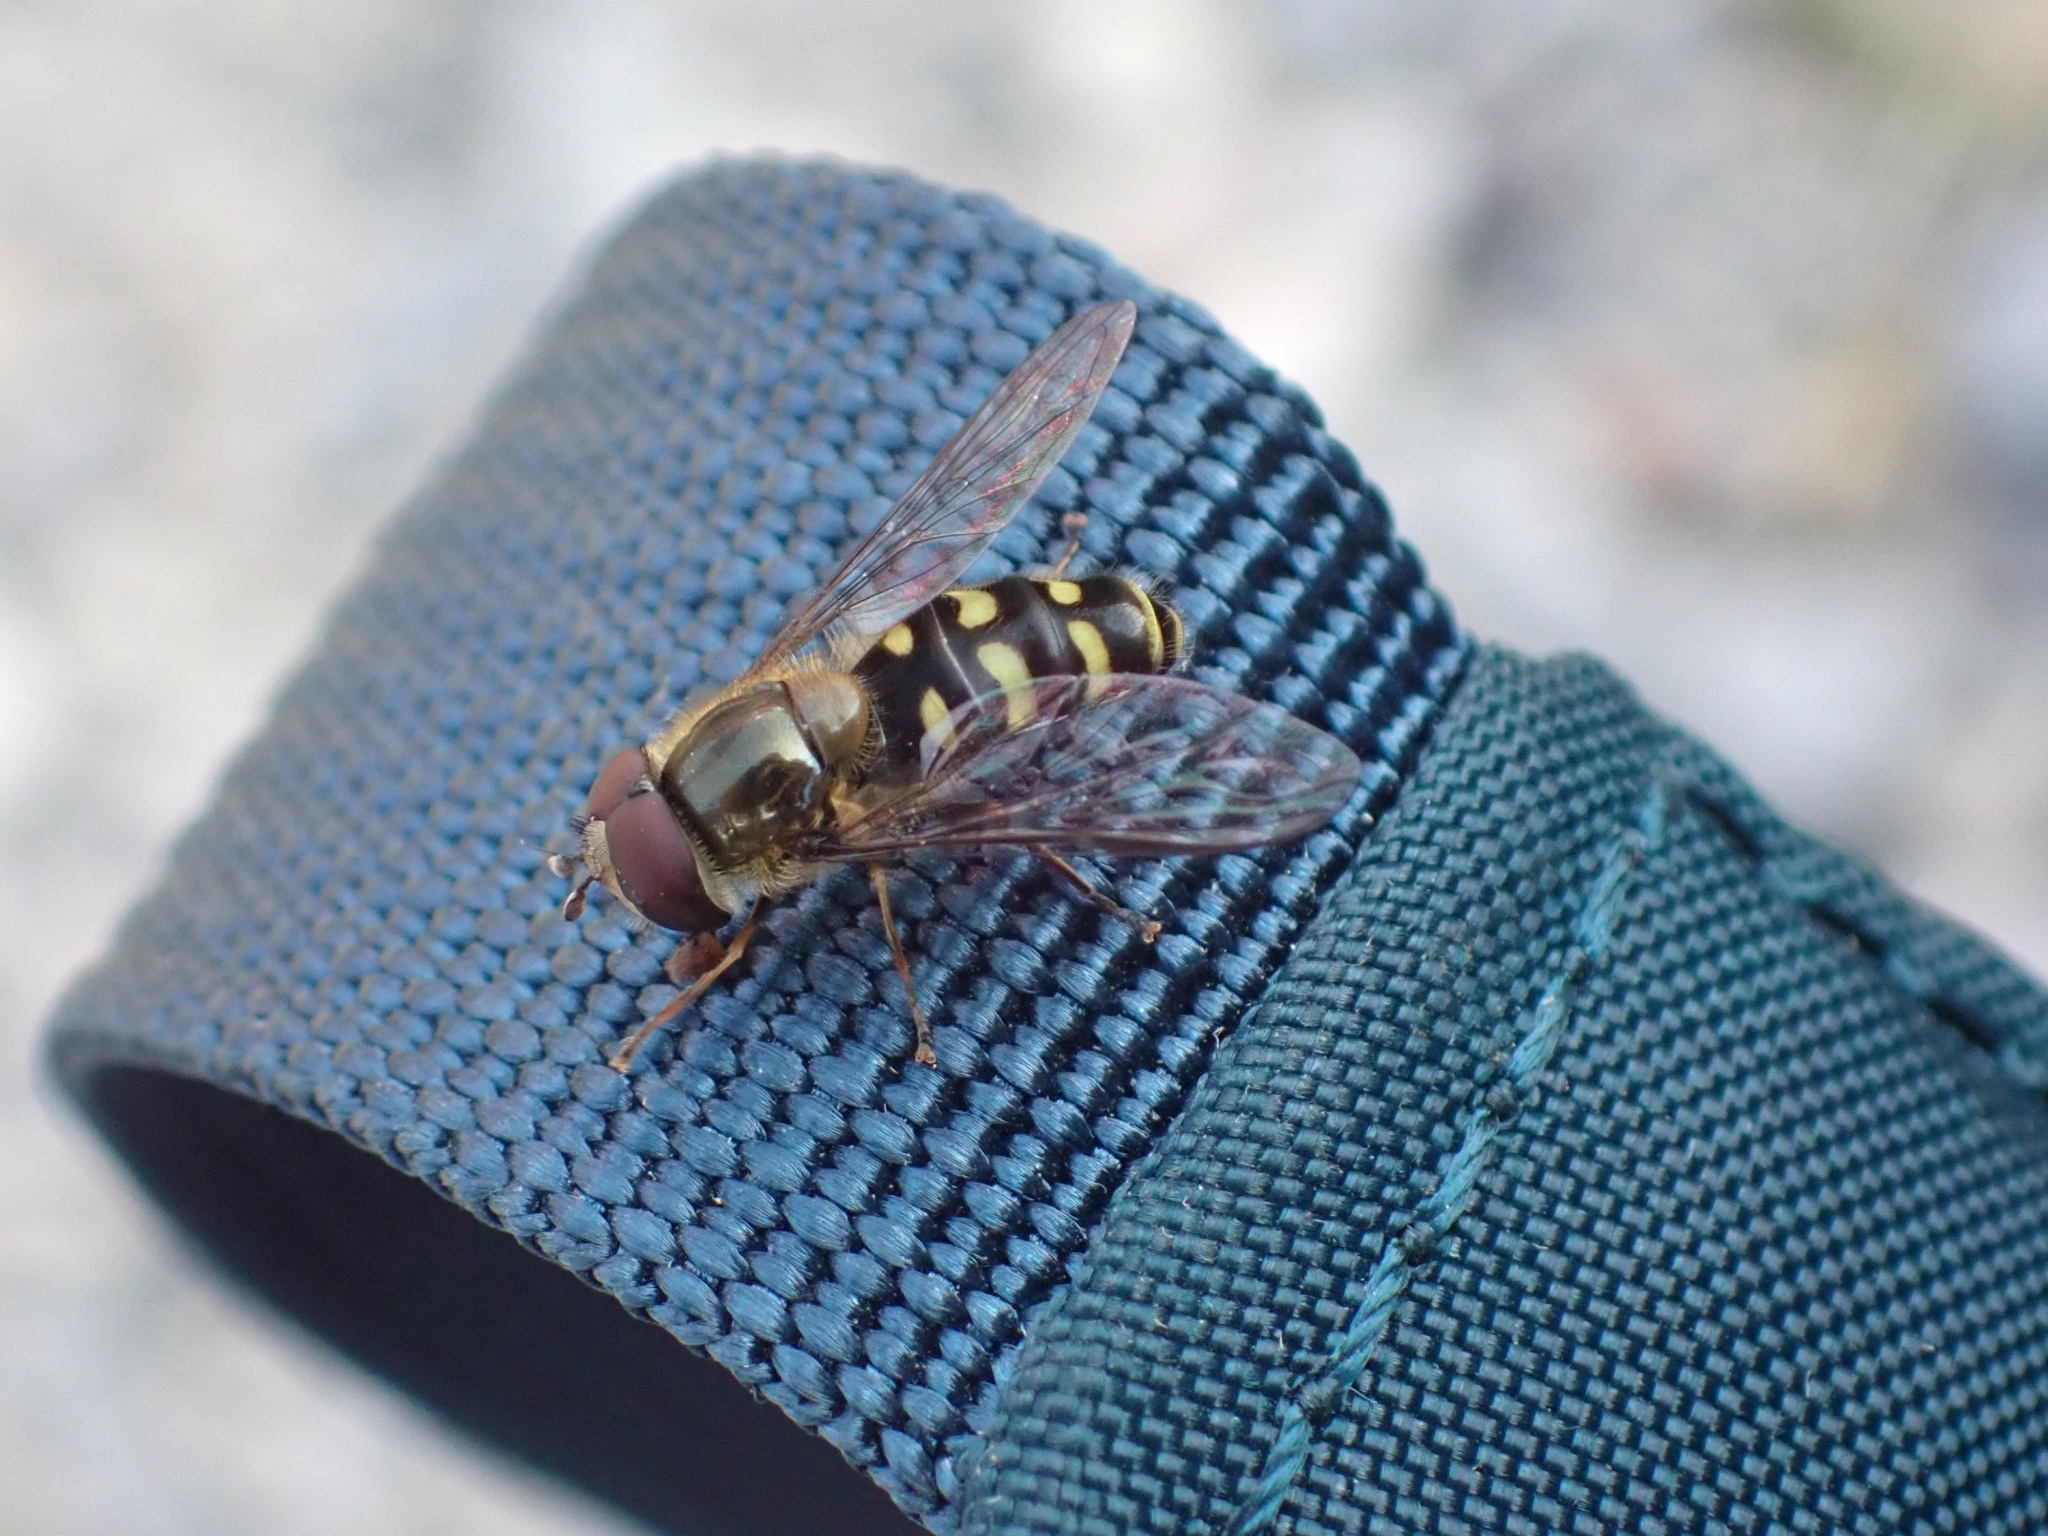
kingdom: Animalia
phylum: Arthropoda
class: Insecta
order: Diptera
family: Syrphidae
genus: Lapposyrphus
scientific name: Lapposyrphus lapponicus
